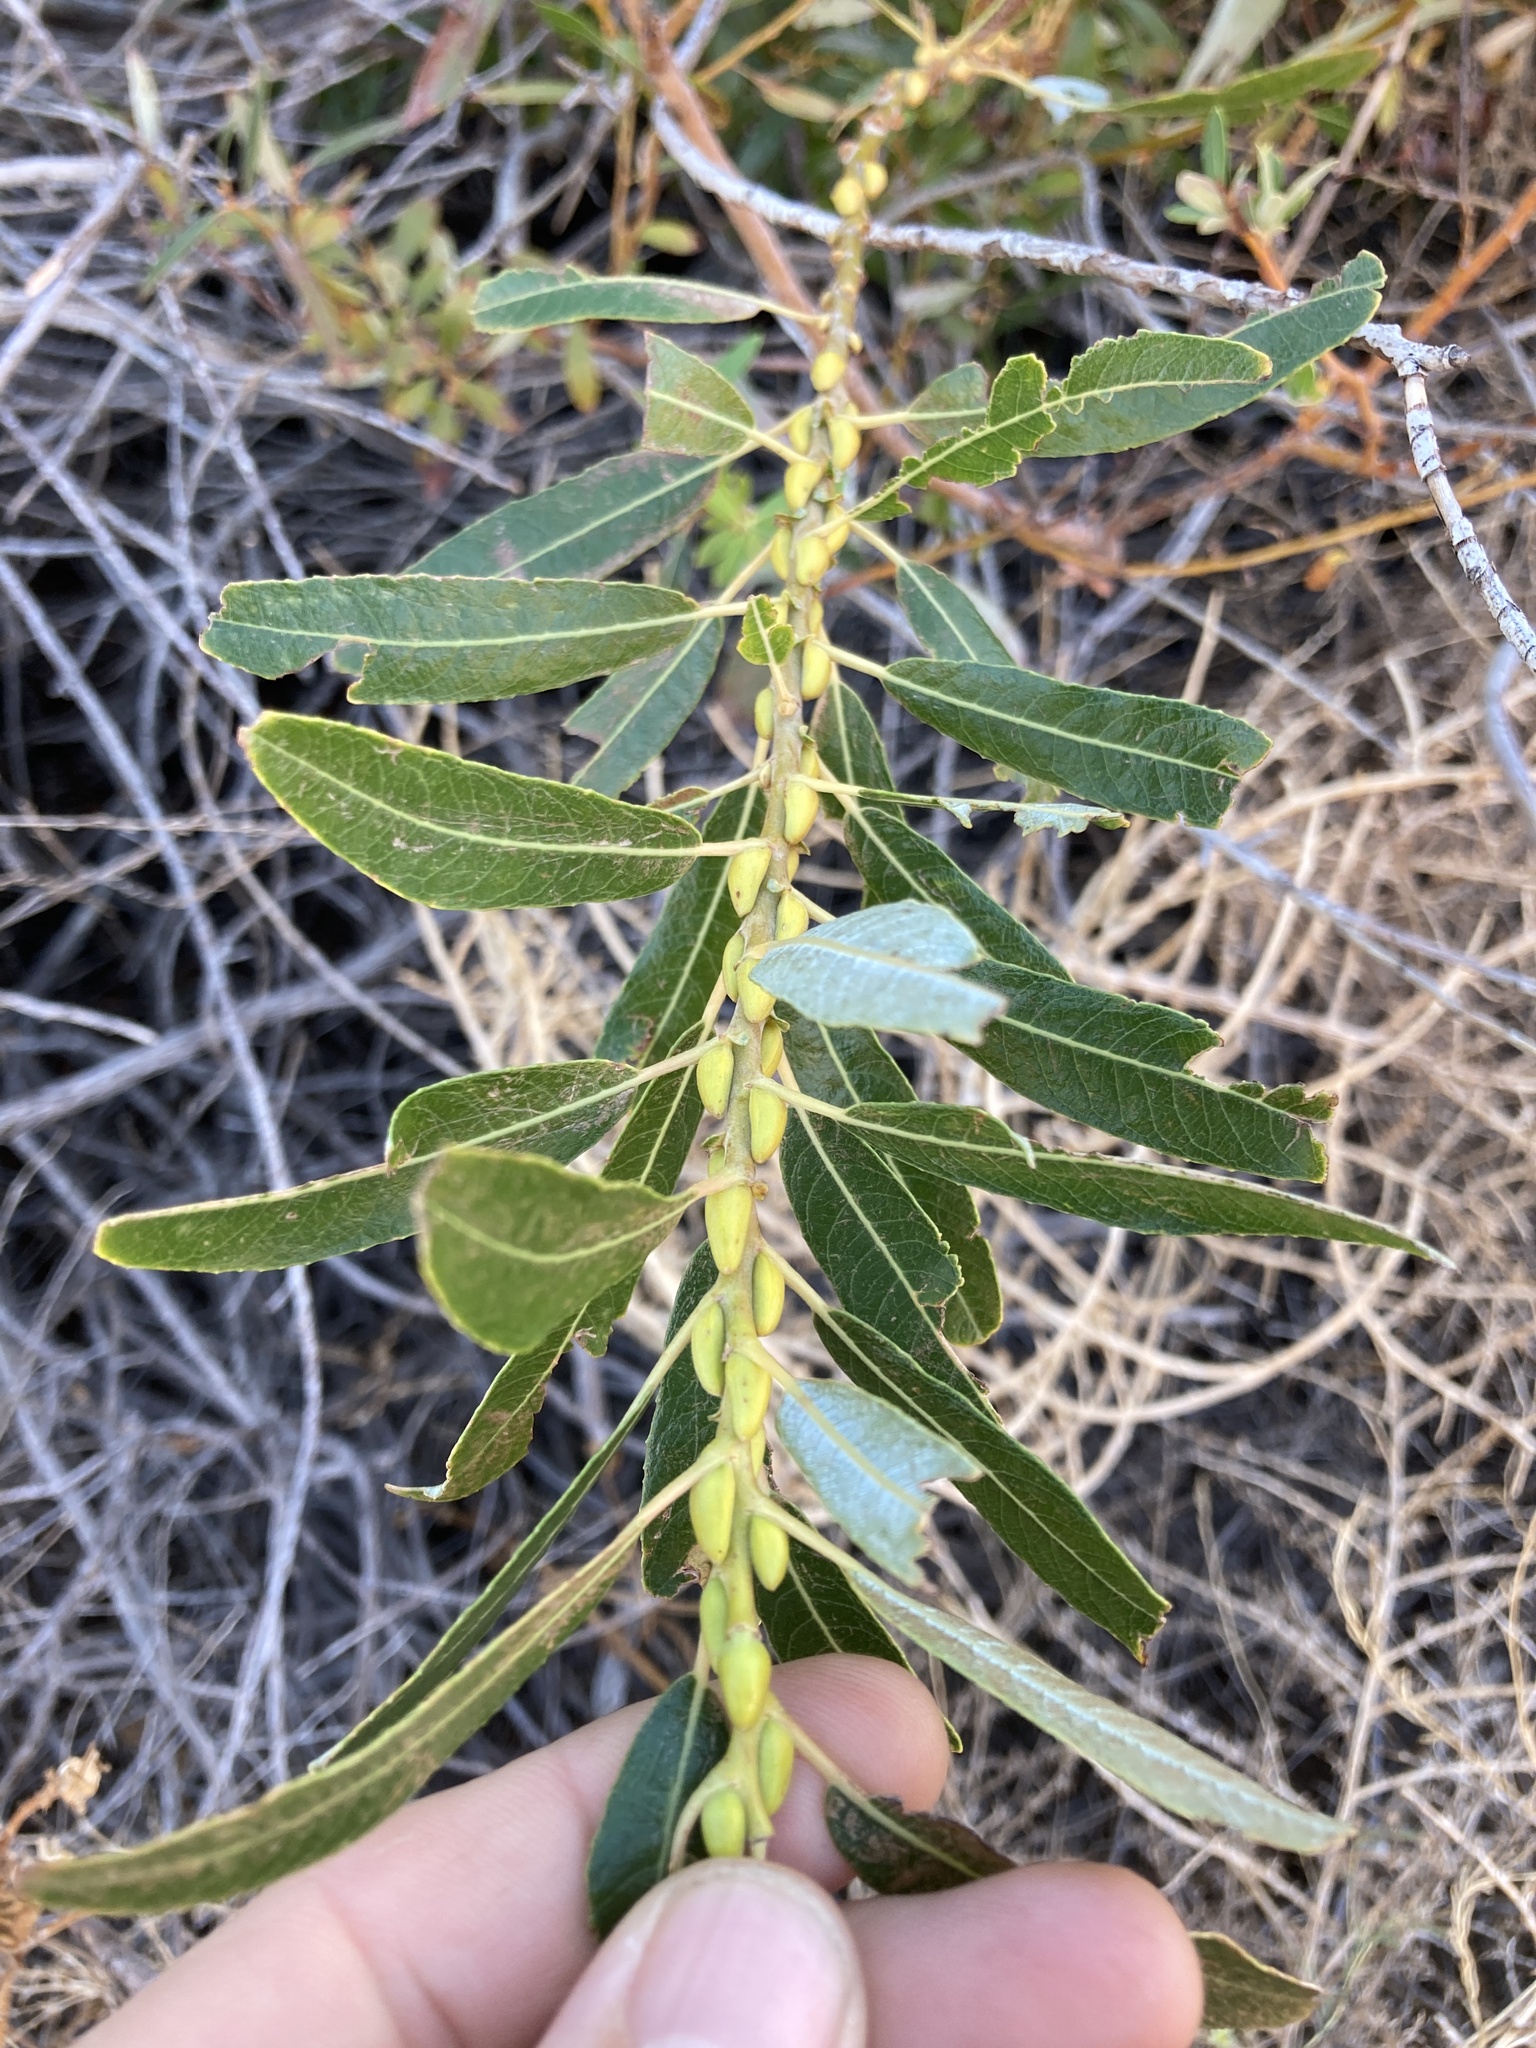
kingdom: Plantae
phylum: Tracheophyta
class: Magnoliopsida
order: Malpighiales
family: Salicaceae
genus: Salix
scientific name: Salix lasiolepis
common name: Arroyo willow
